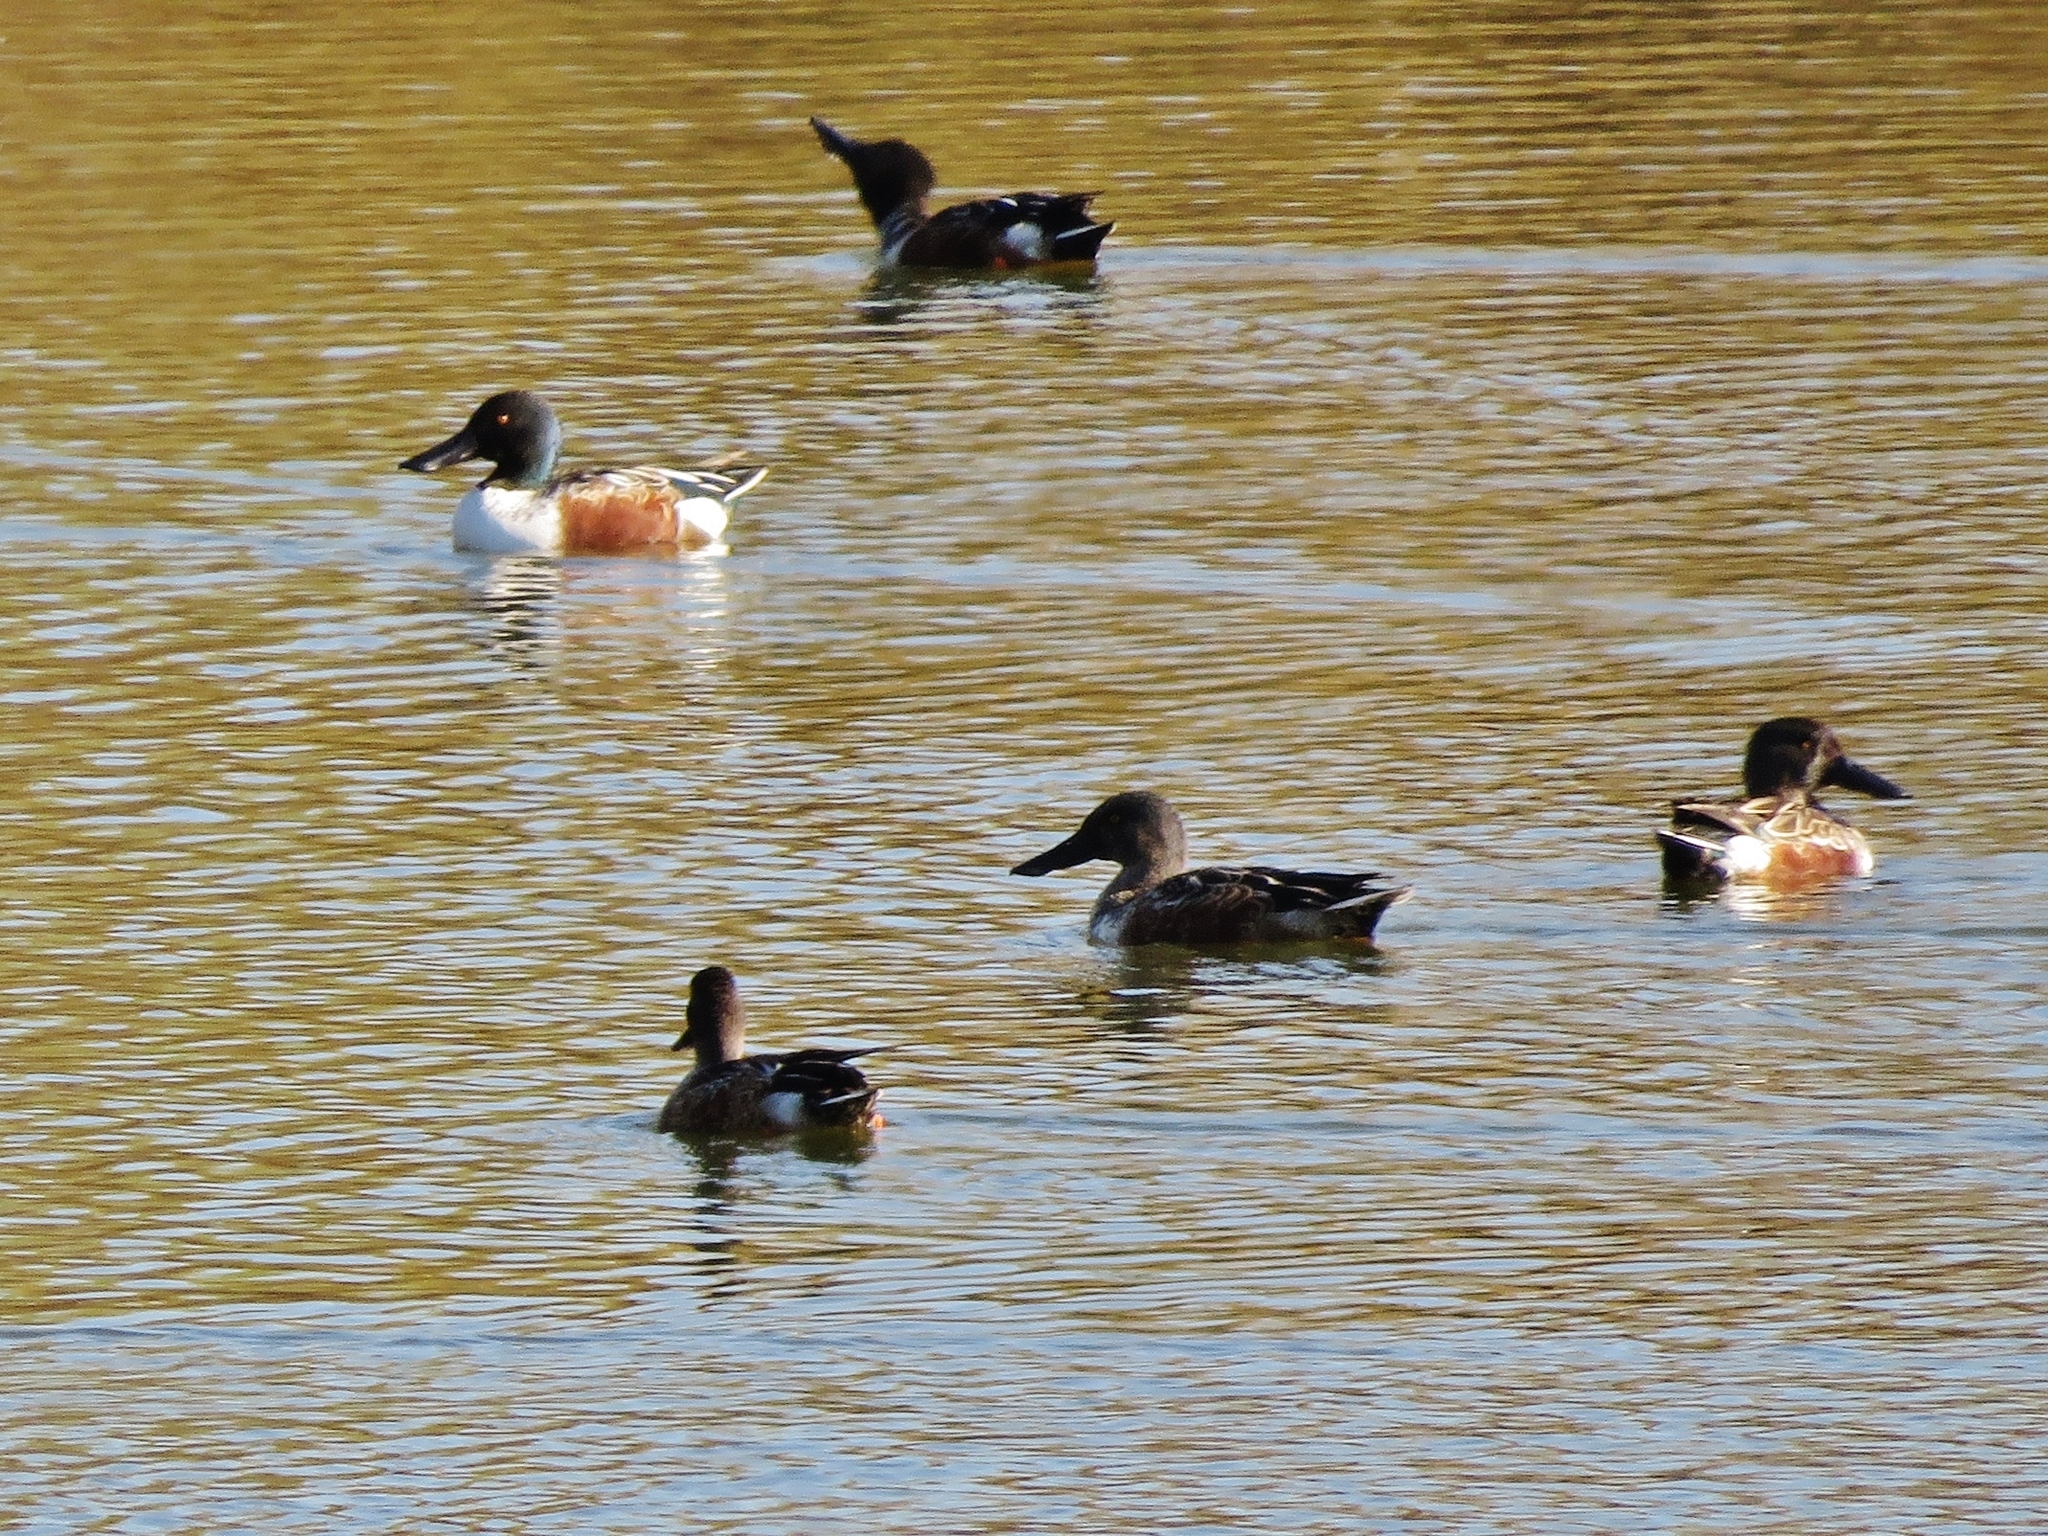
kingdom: Animalia
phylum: Chordata
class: Aves
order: Anseriformes
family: Anatidae
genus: Spatula
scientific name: Spatula clypeata
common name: Northern shoveler
